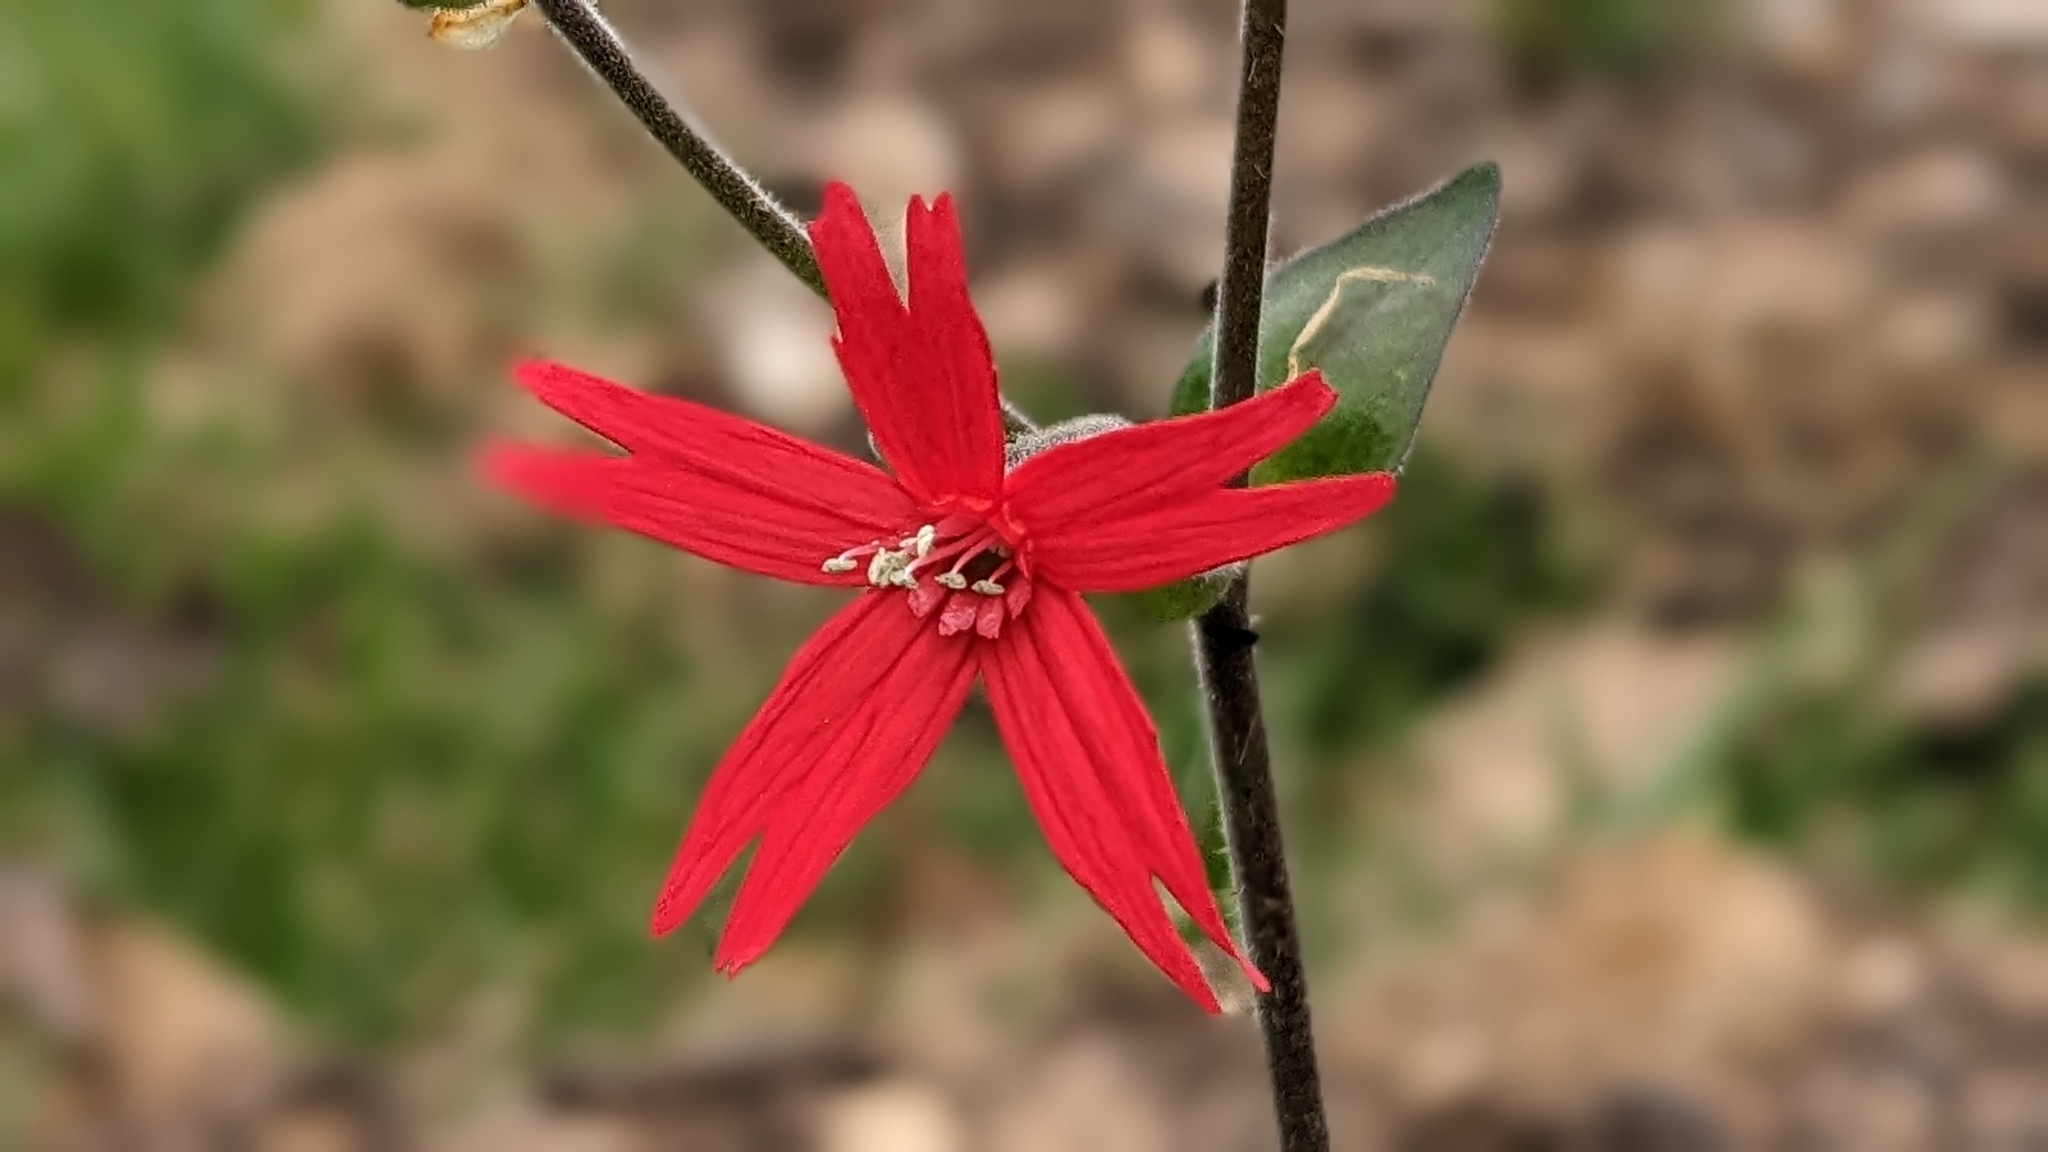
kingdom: Plantae
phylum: Tracheophyta
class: Magnoliopsida
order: Caryophyllales
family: Caryophyllaceae
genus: Silene
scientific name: Silene virginica
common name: Fire-pink
